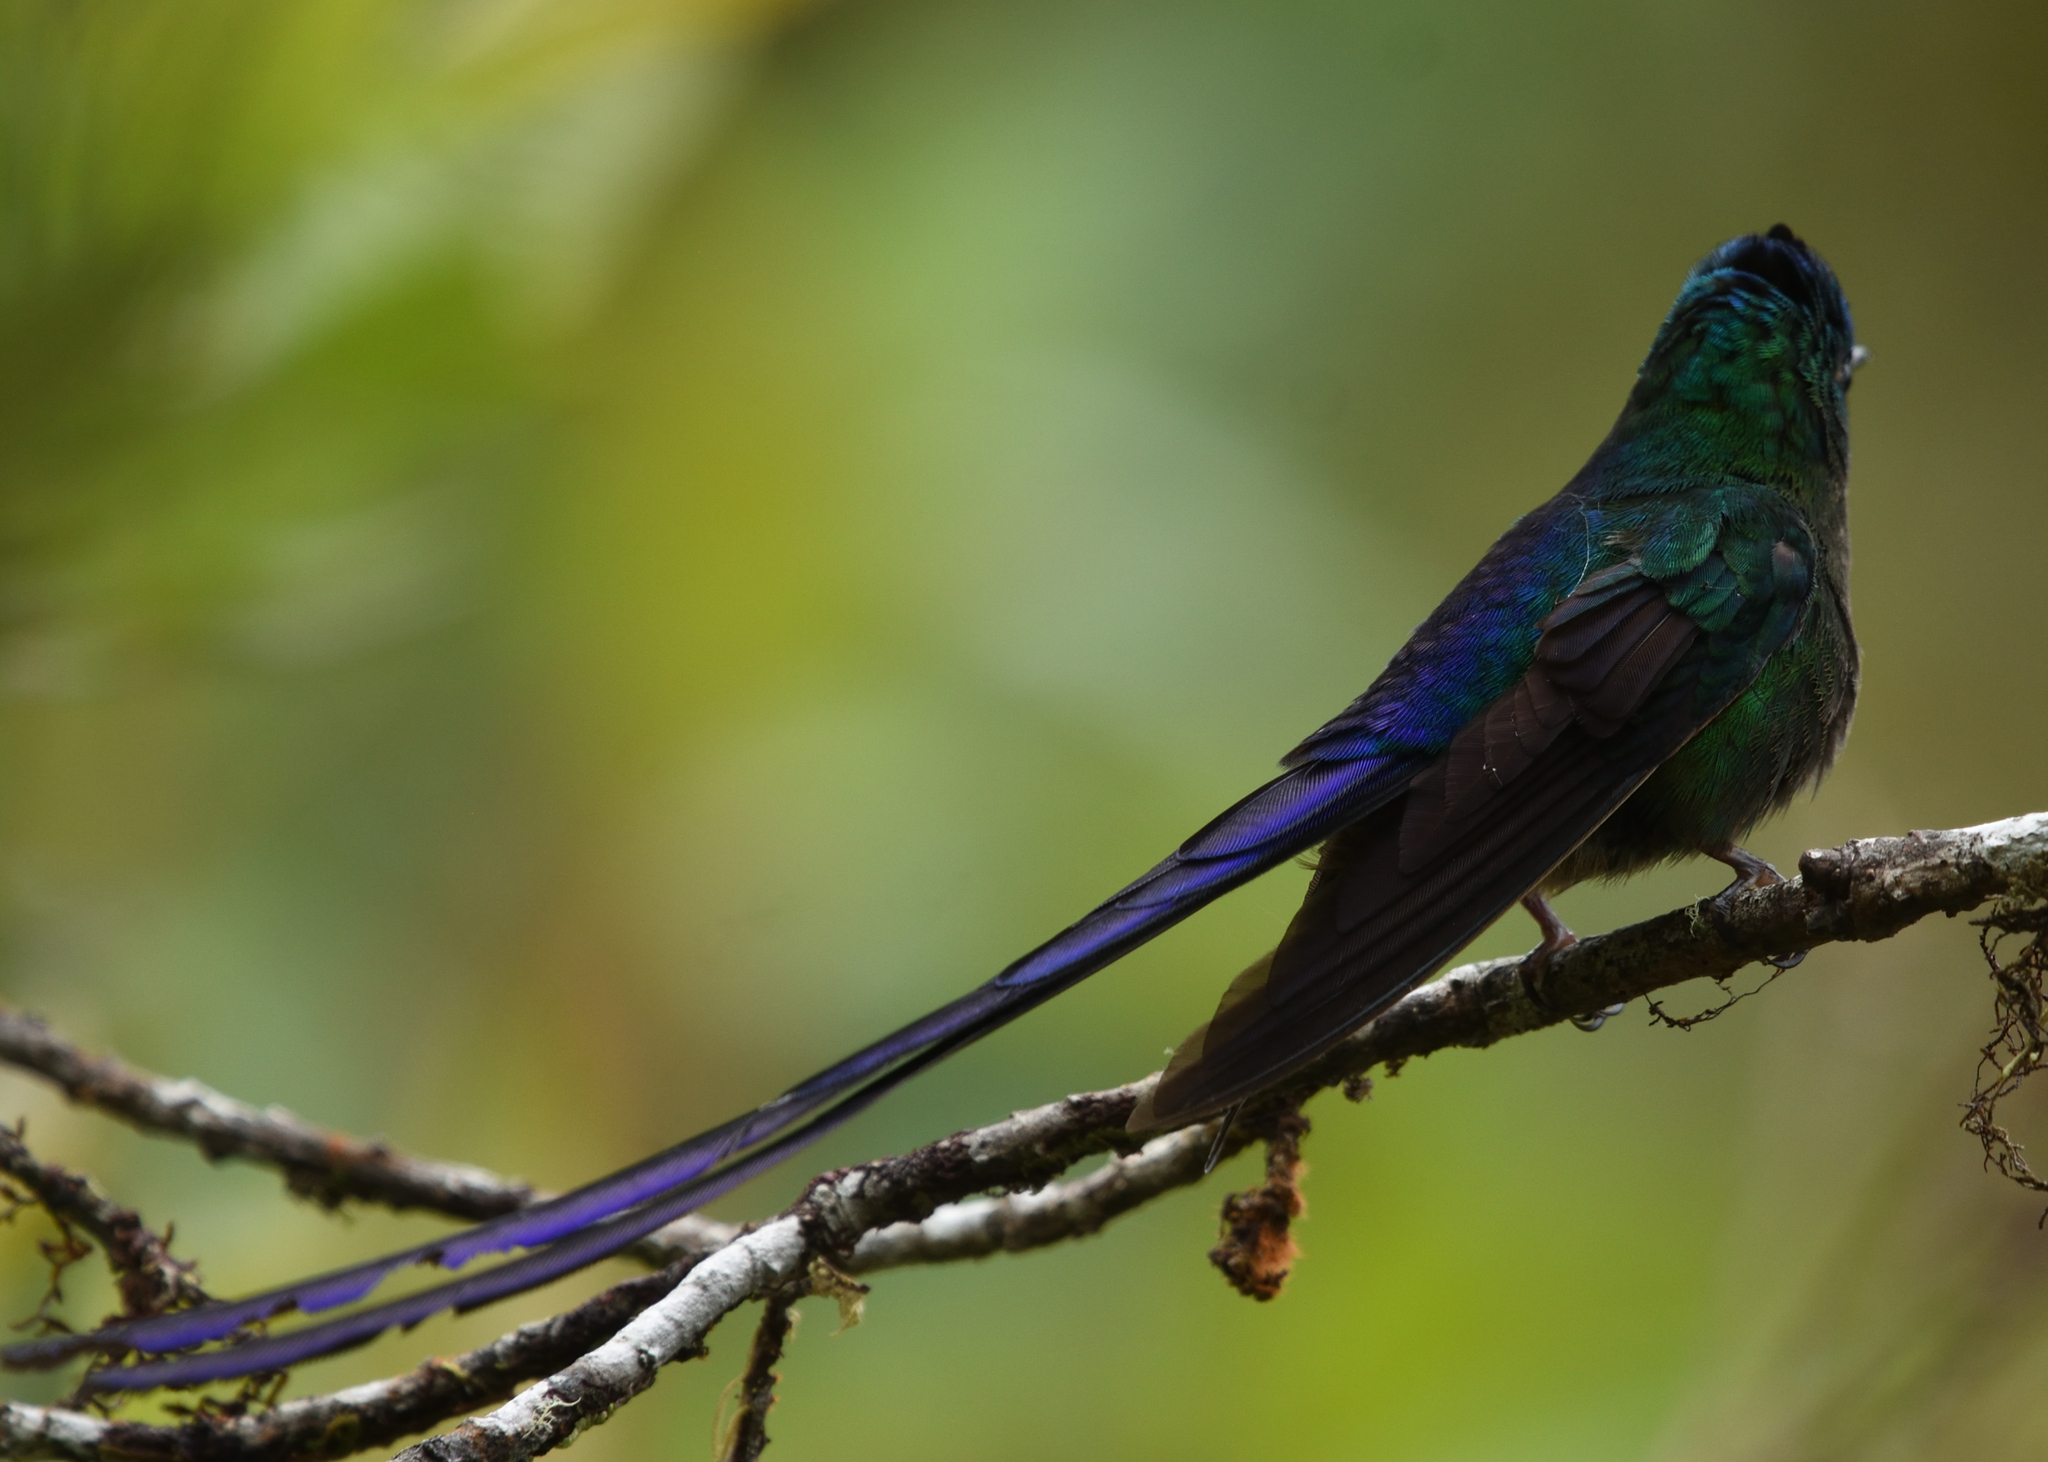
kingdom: Animalia
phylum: Chordata
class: Aves
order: Apodiformes
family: Trochilidae
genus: Aglaiocercus
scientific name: Aglaiocercus coelestis
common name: Violet-tailed sylph
